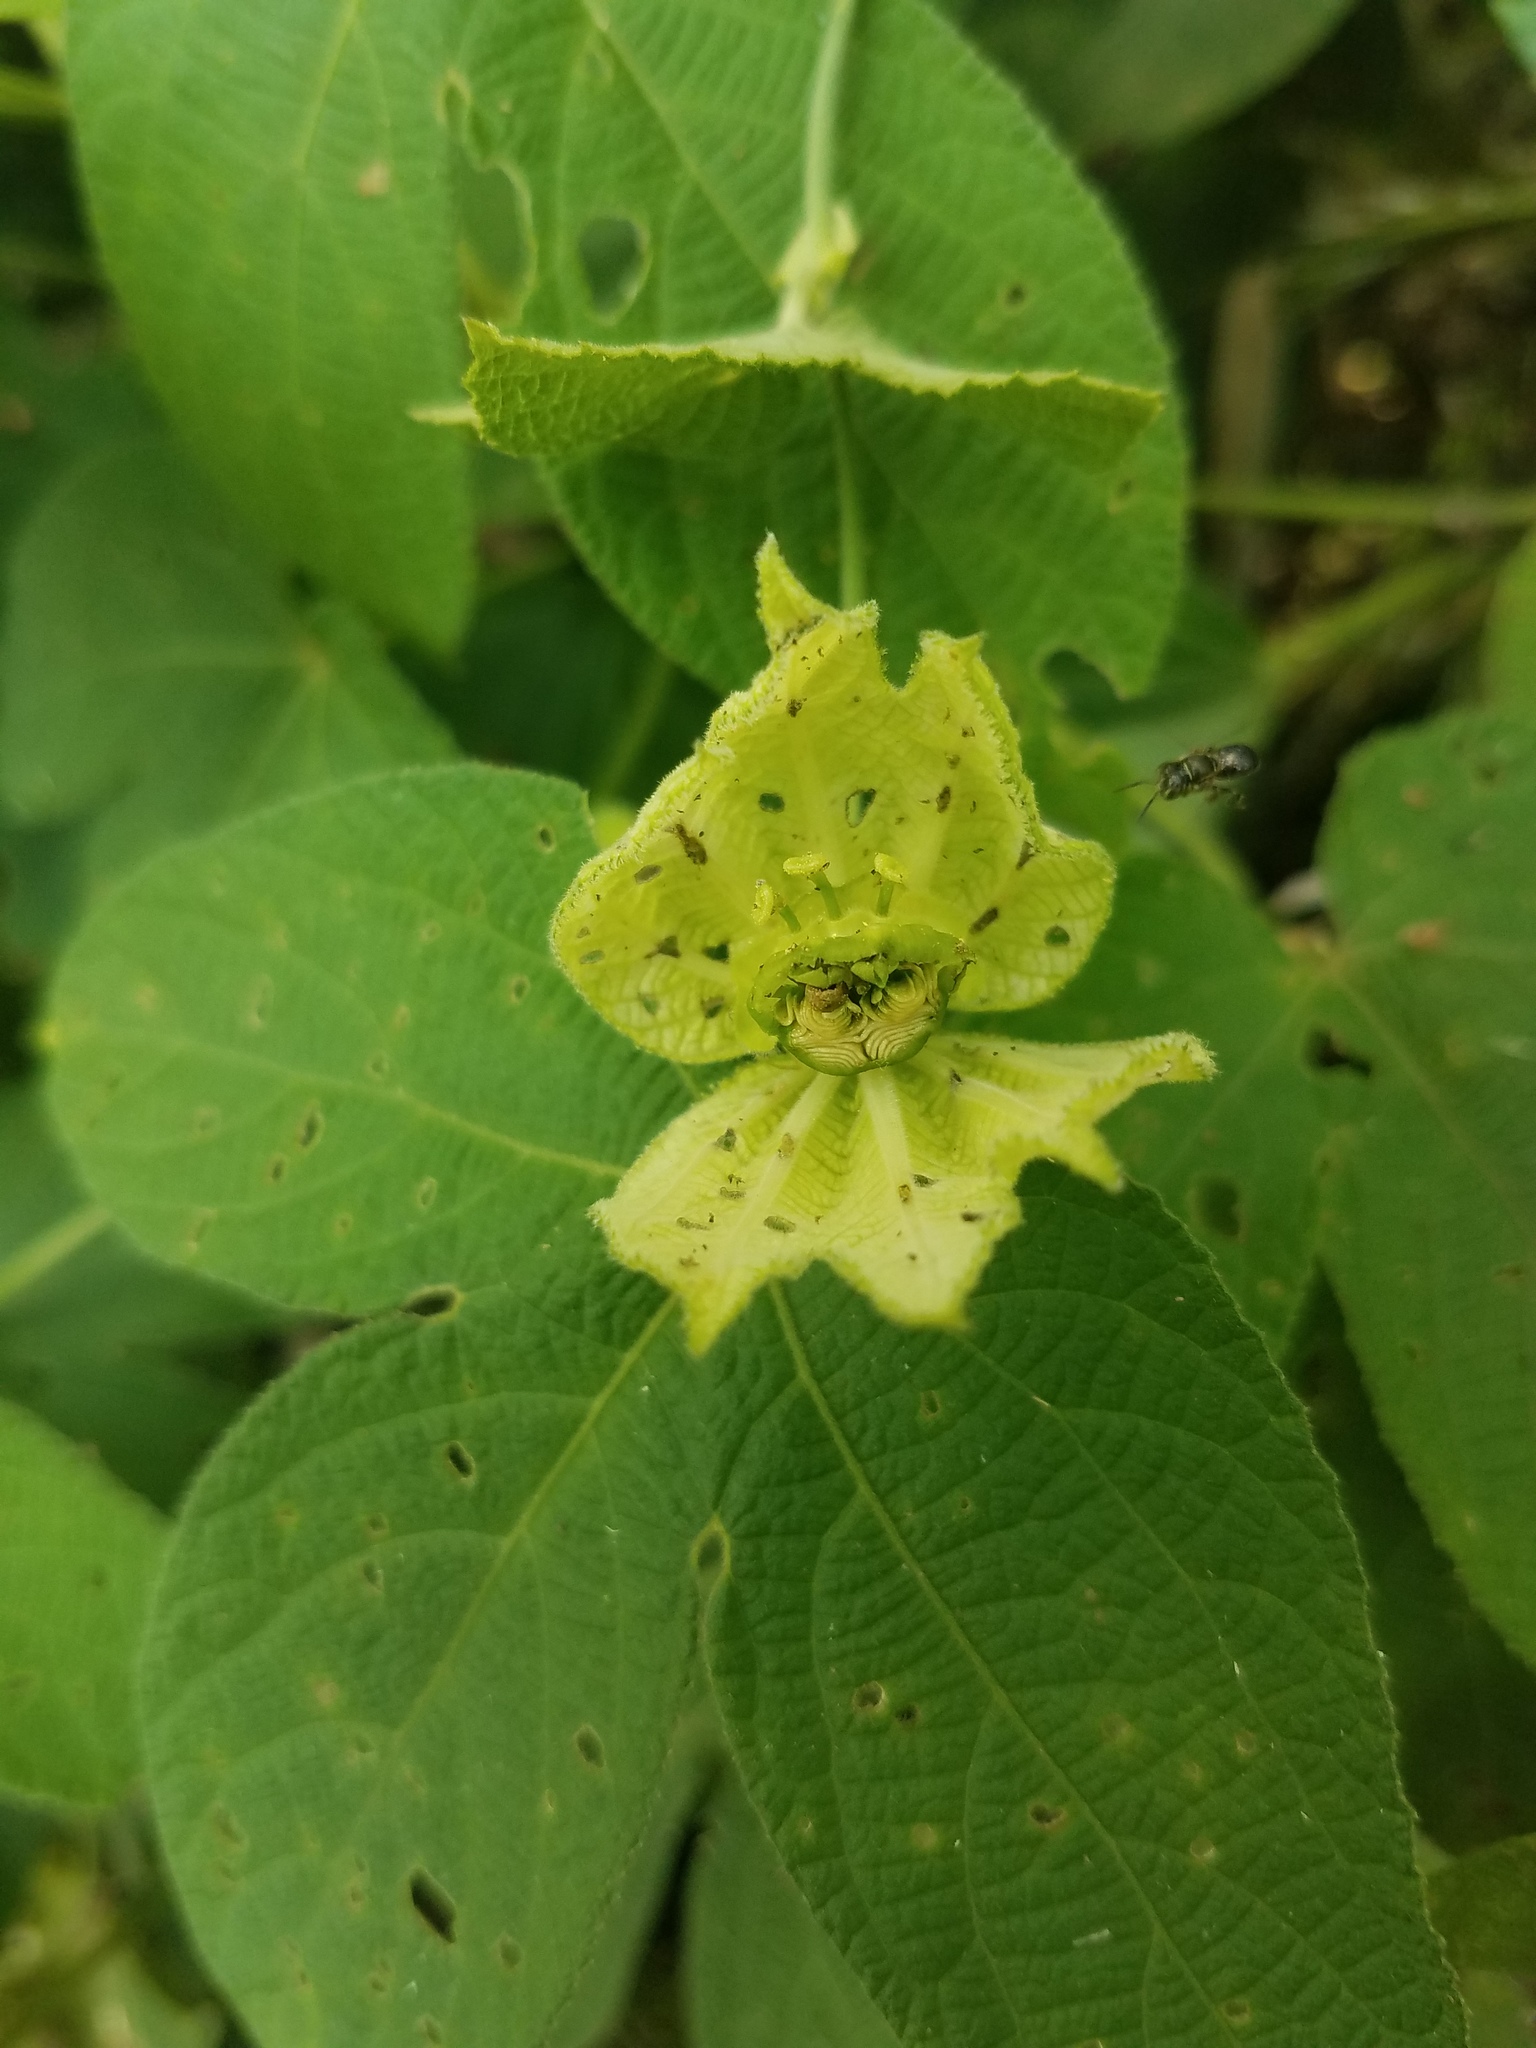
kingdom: Plantae
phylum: Tracheophyta
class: Magnoliopsida
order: Malpighiales
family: Euphorbiaceae
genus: Dalechampia
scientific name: Dalechampia scandens
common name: Spurgecreeper
